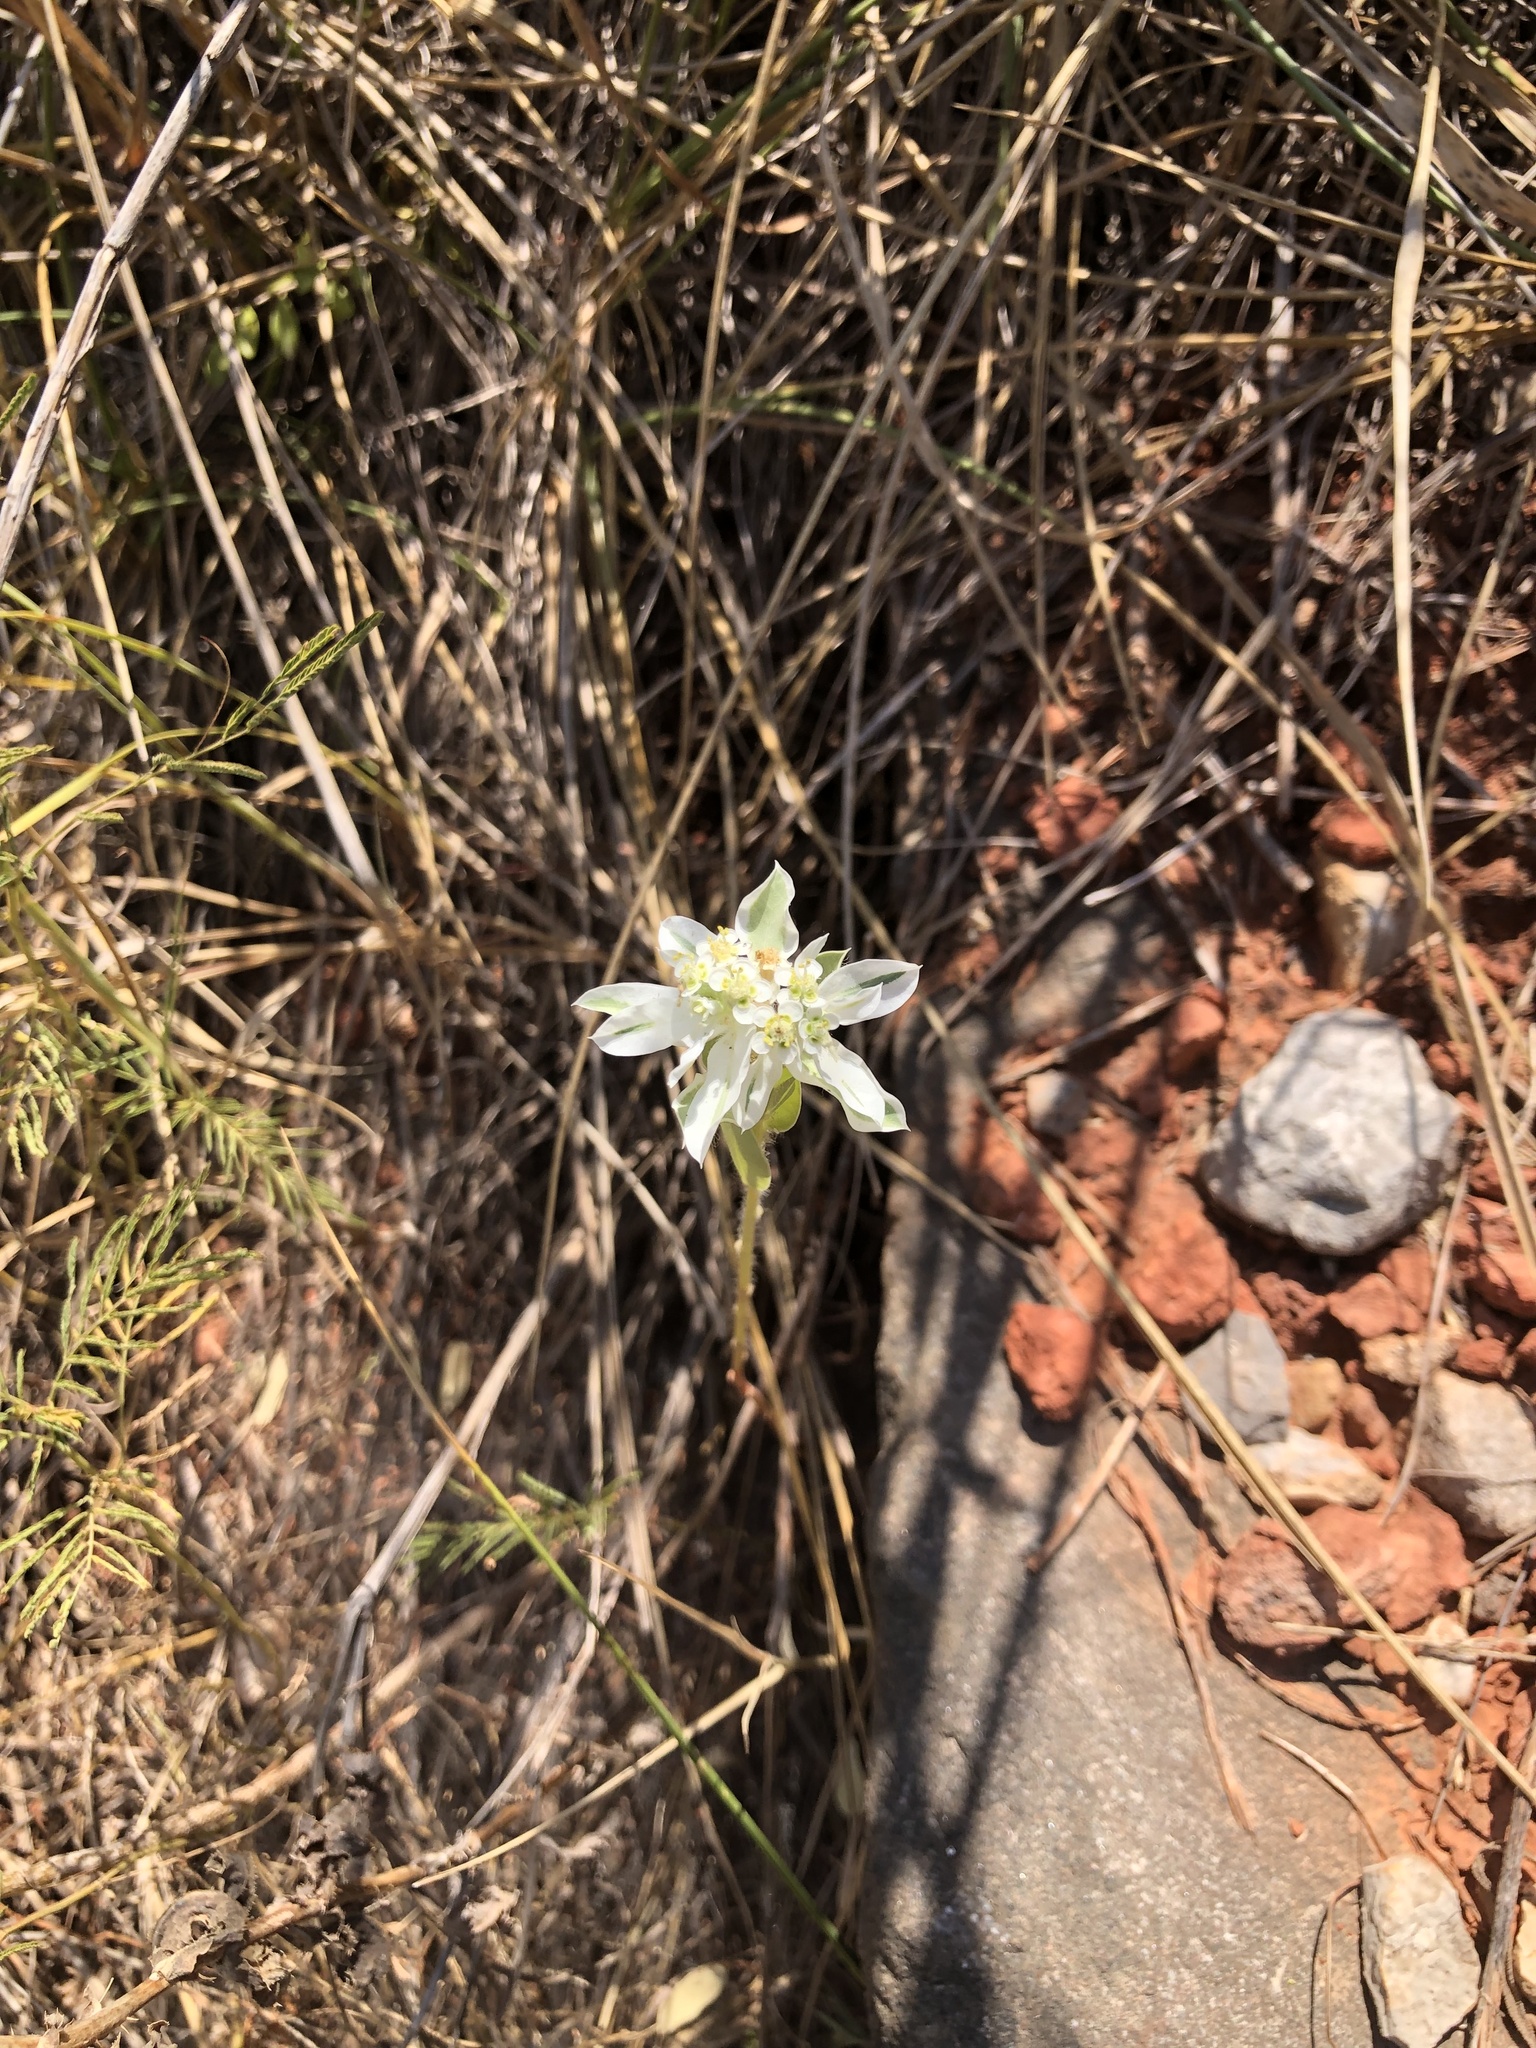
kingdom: Plantae
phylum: Tracheophyta
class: Magnoliopsida
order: Malpighiales
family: Euphorbiaceae
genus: Euphorbia
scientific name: Euphorbia marginata
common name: Ghostweed
